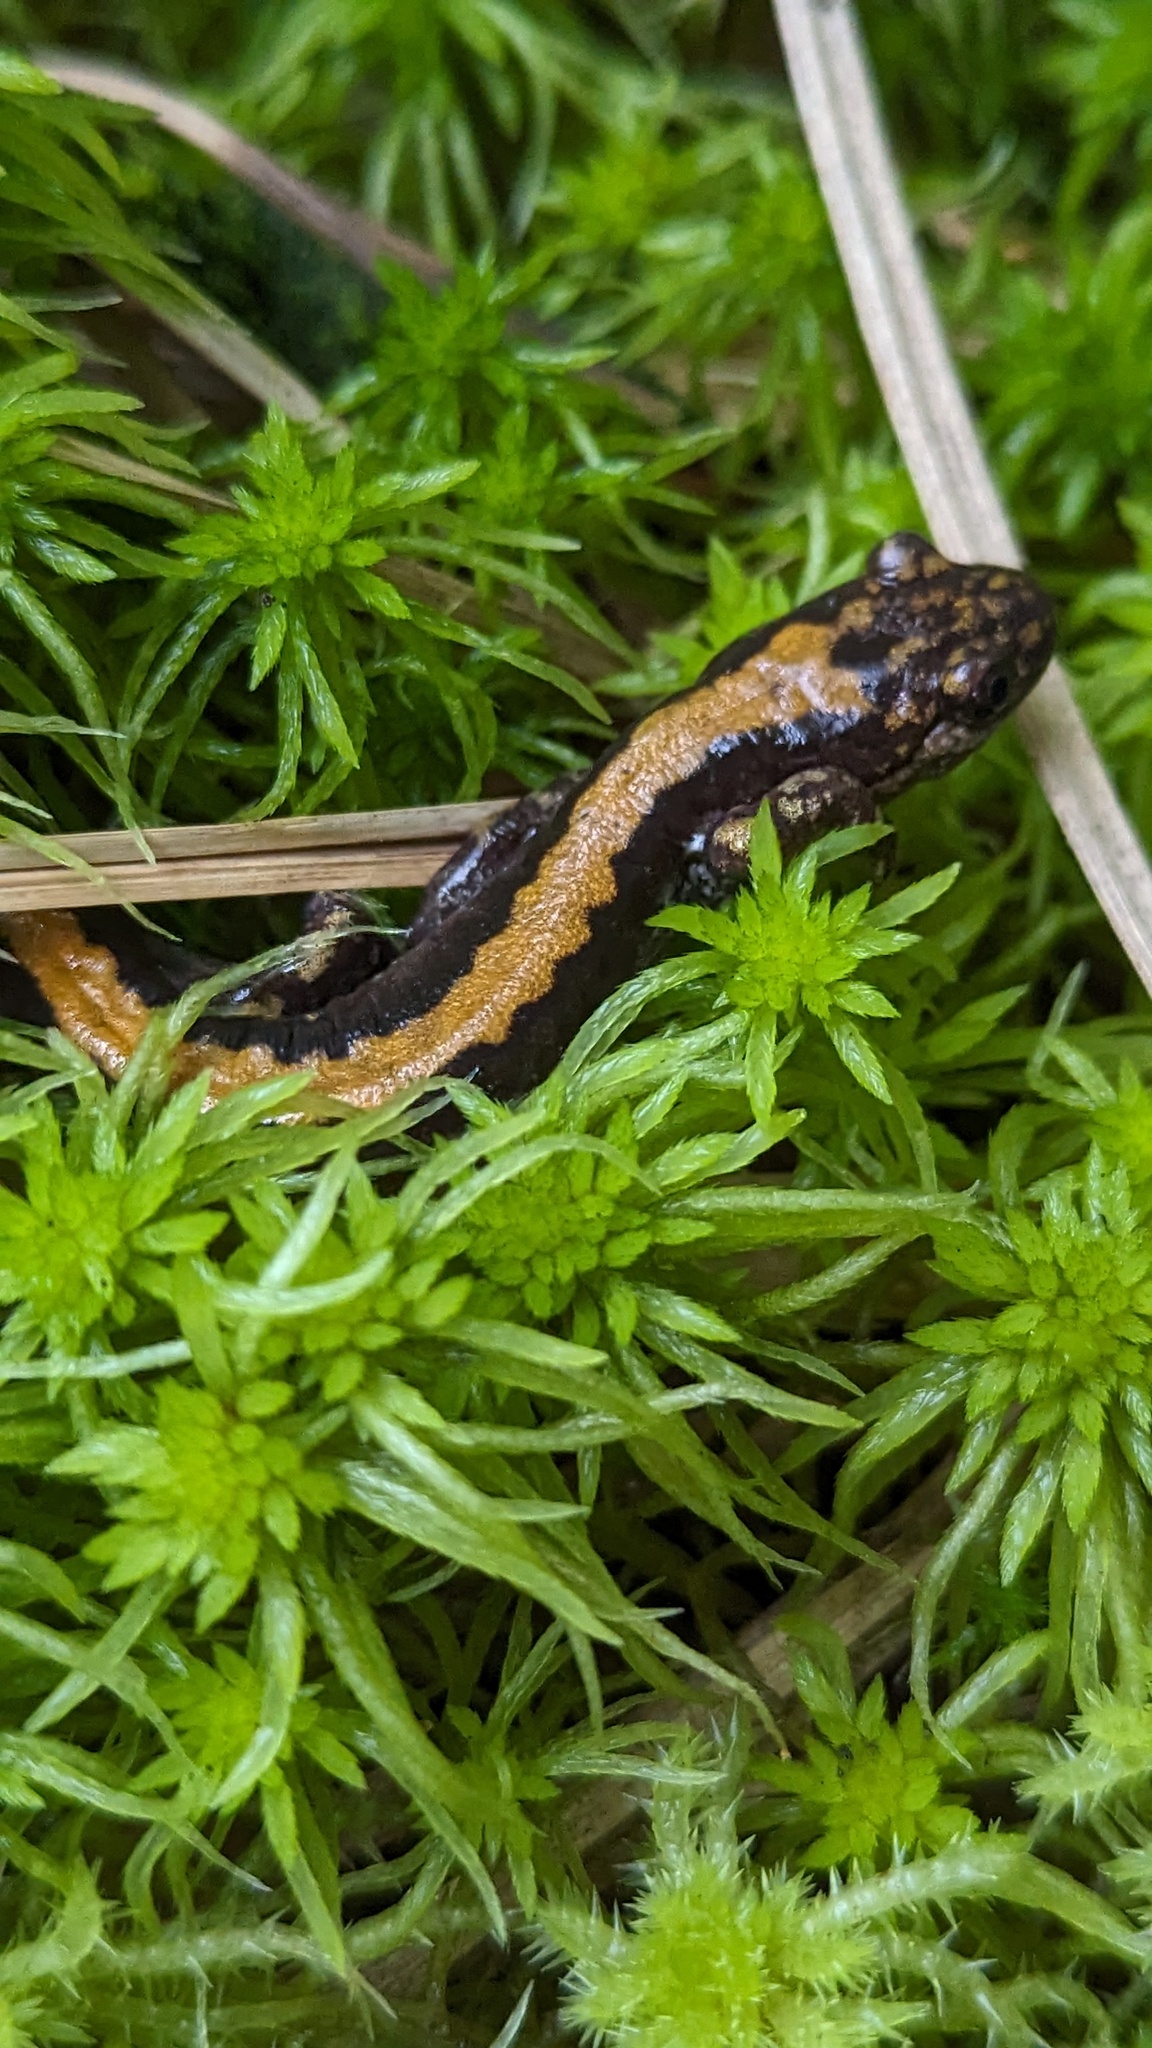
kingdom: Animalia
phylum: Chordata
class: Amphibia
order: Caudata
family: Ambystomatidae
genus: Ambystoma
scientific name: Ambystoma macrodactylum
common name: Long-toed salamander
